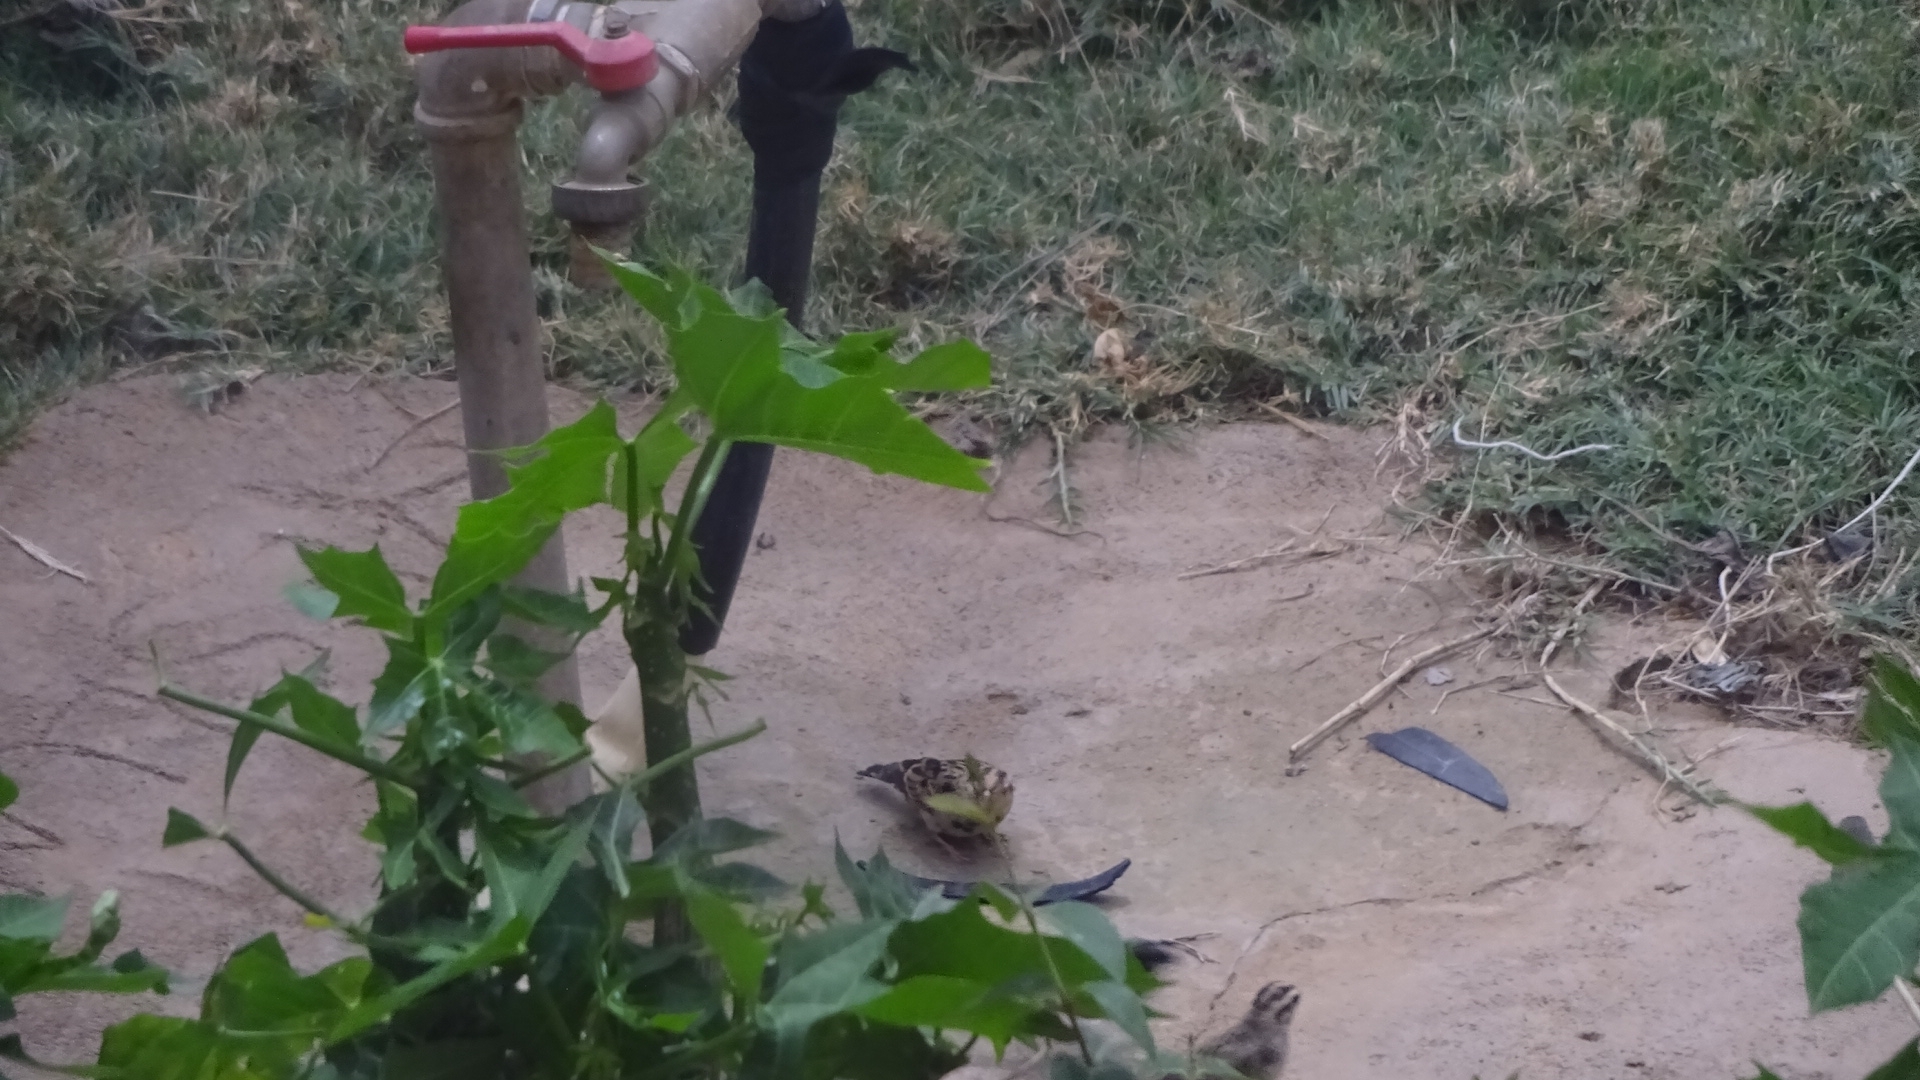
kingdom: Animalia
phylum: Chordata
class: Aves
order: Passeriformes
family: Viduidae
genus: Vidua
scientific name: Vidua macroura
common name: Pin-tailed whydah
